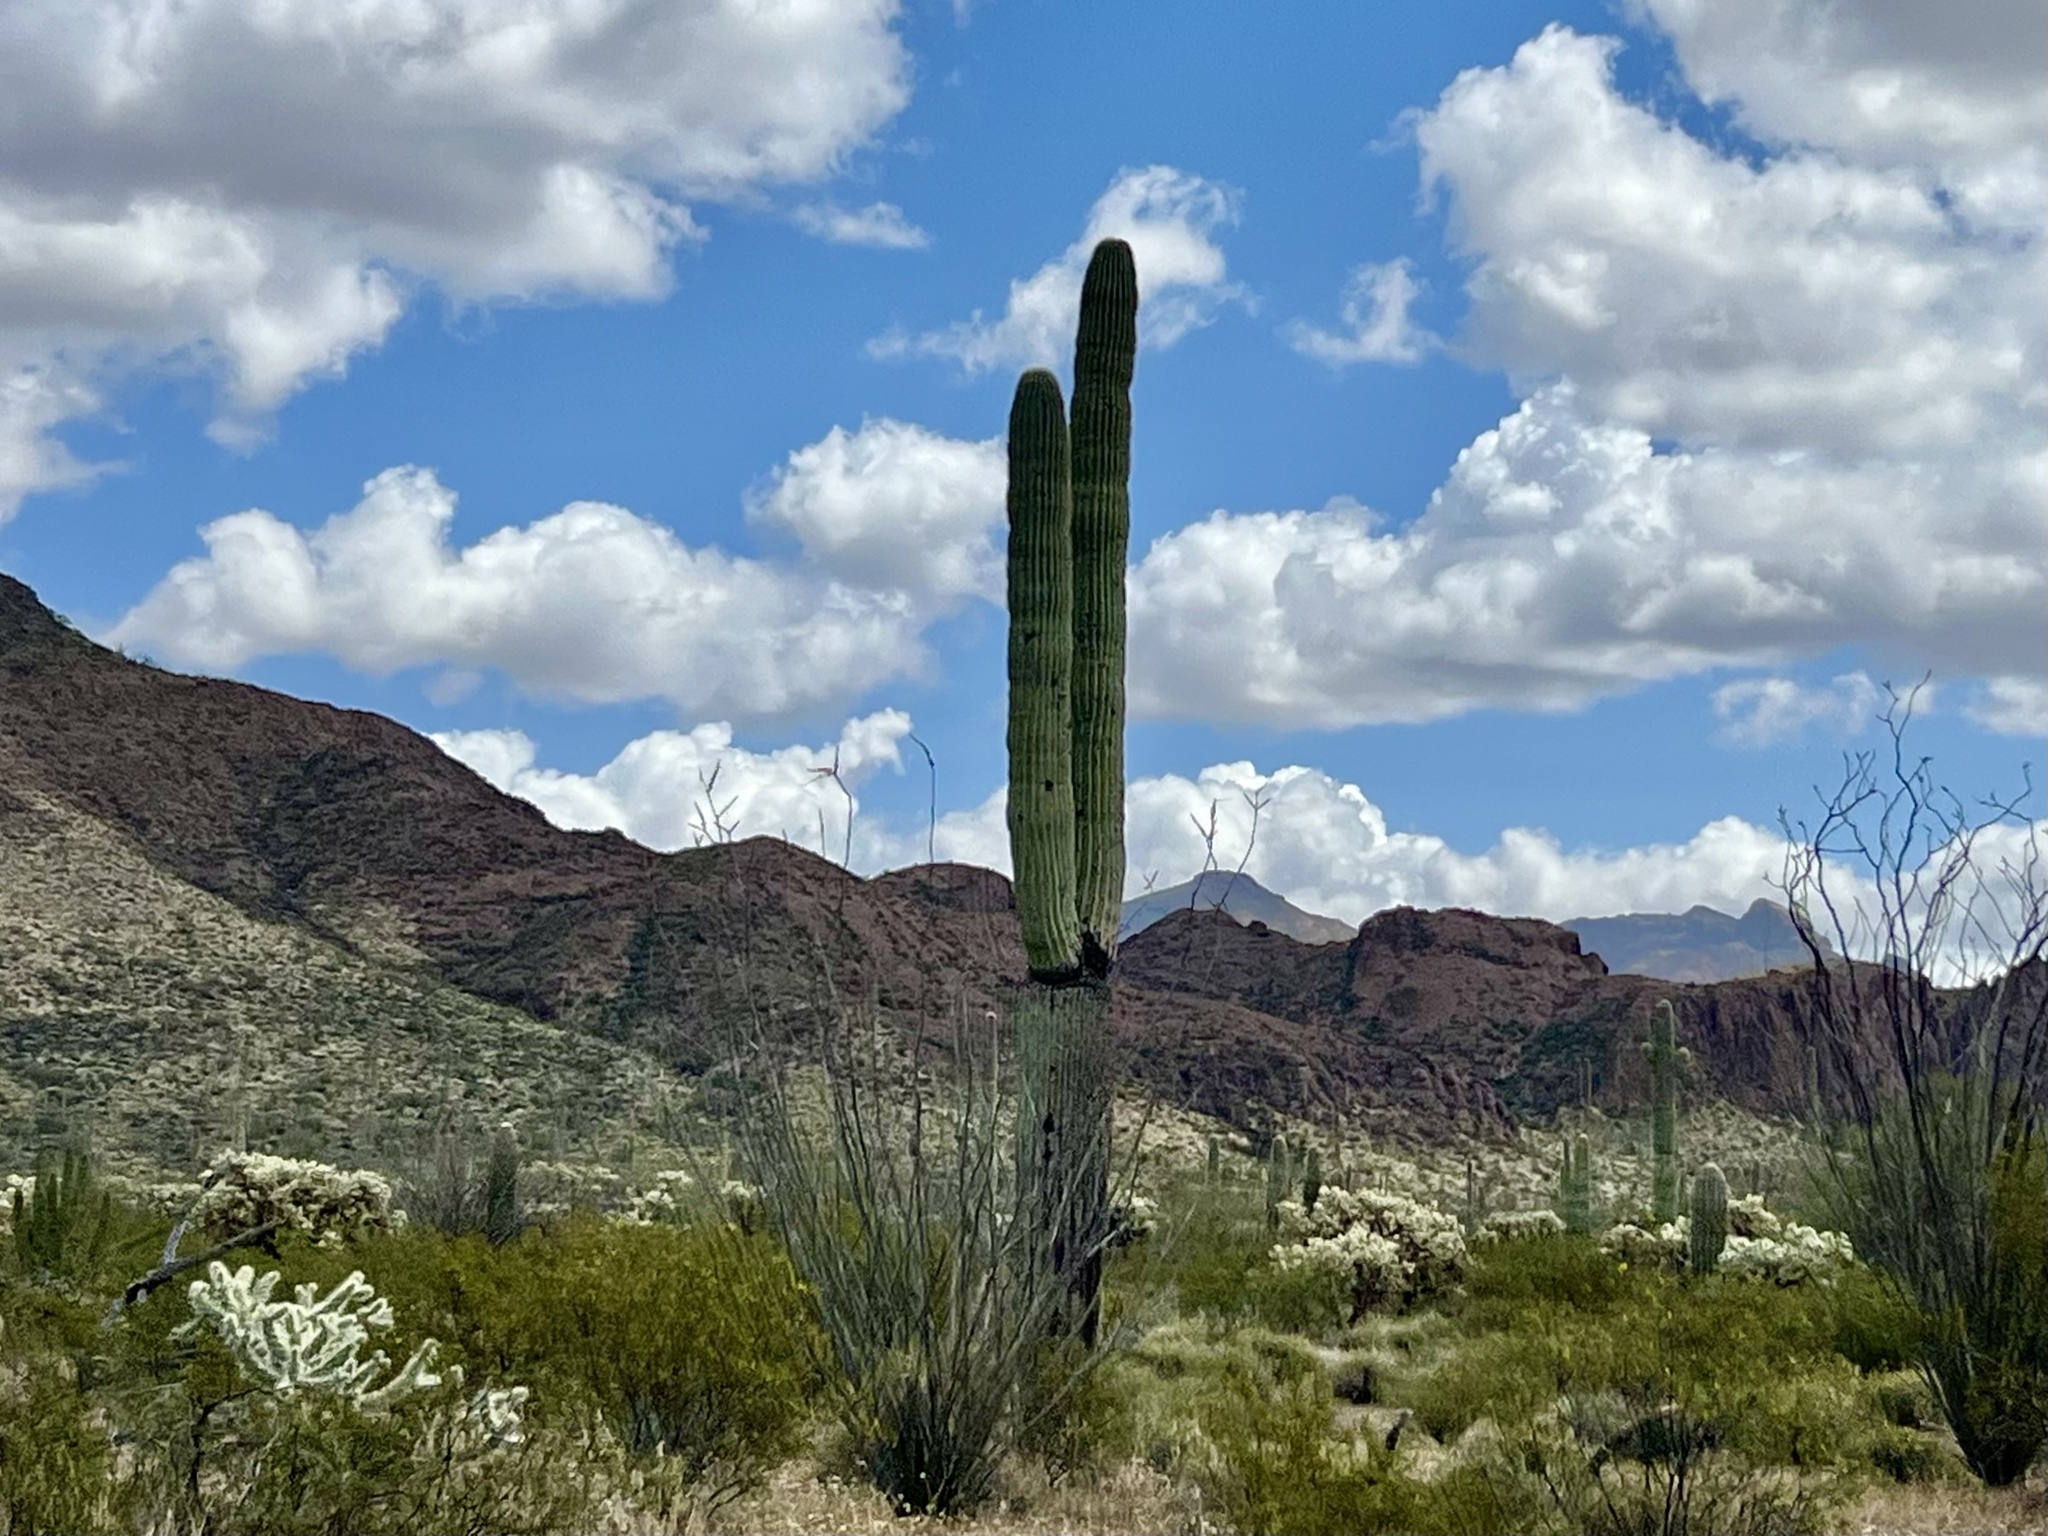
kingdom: Plantae
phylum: Tracheophyta
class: Magnoliopsida
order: Caryophyllales
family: Cactaceae
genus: Carnegiea
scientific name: Carnegiea gigantea
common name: Saguaro
